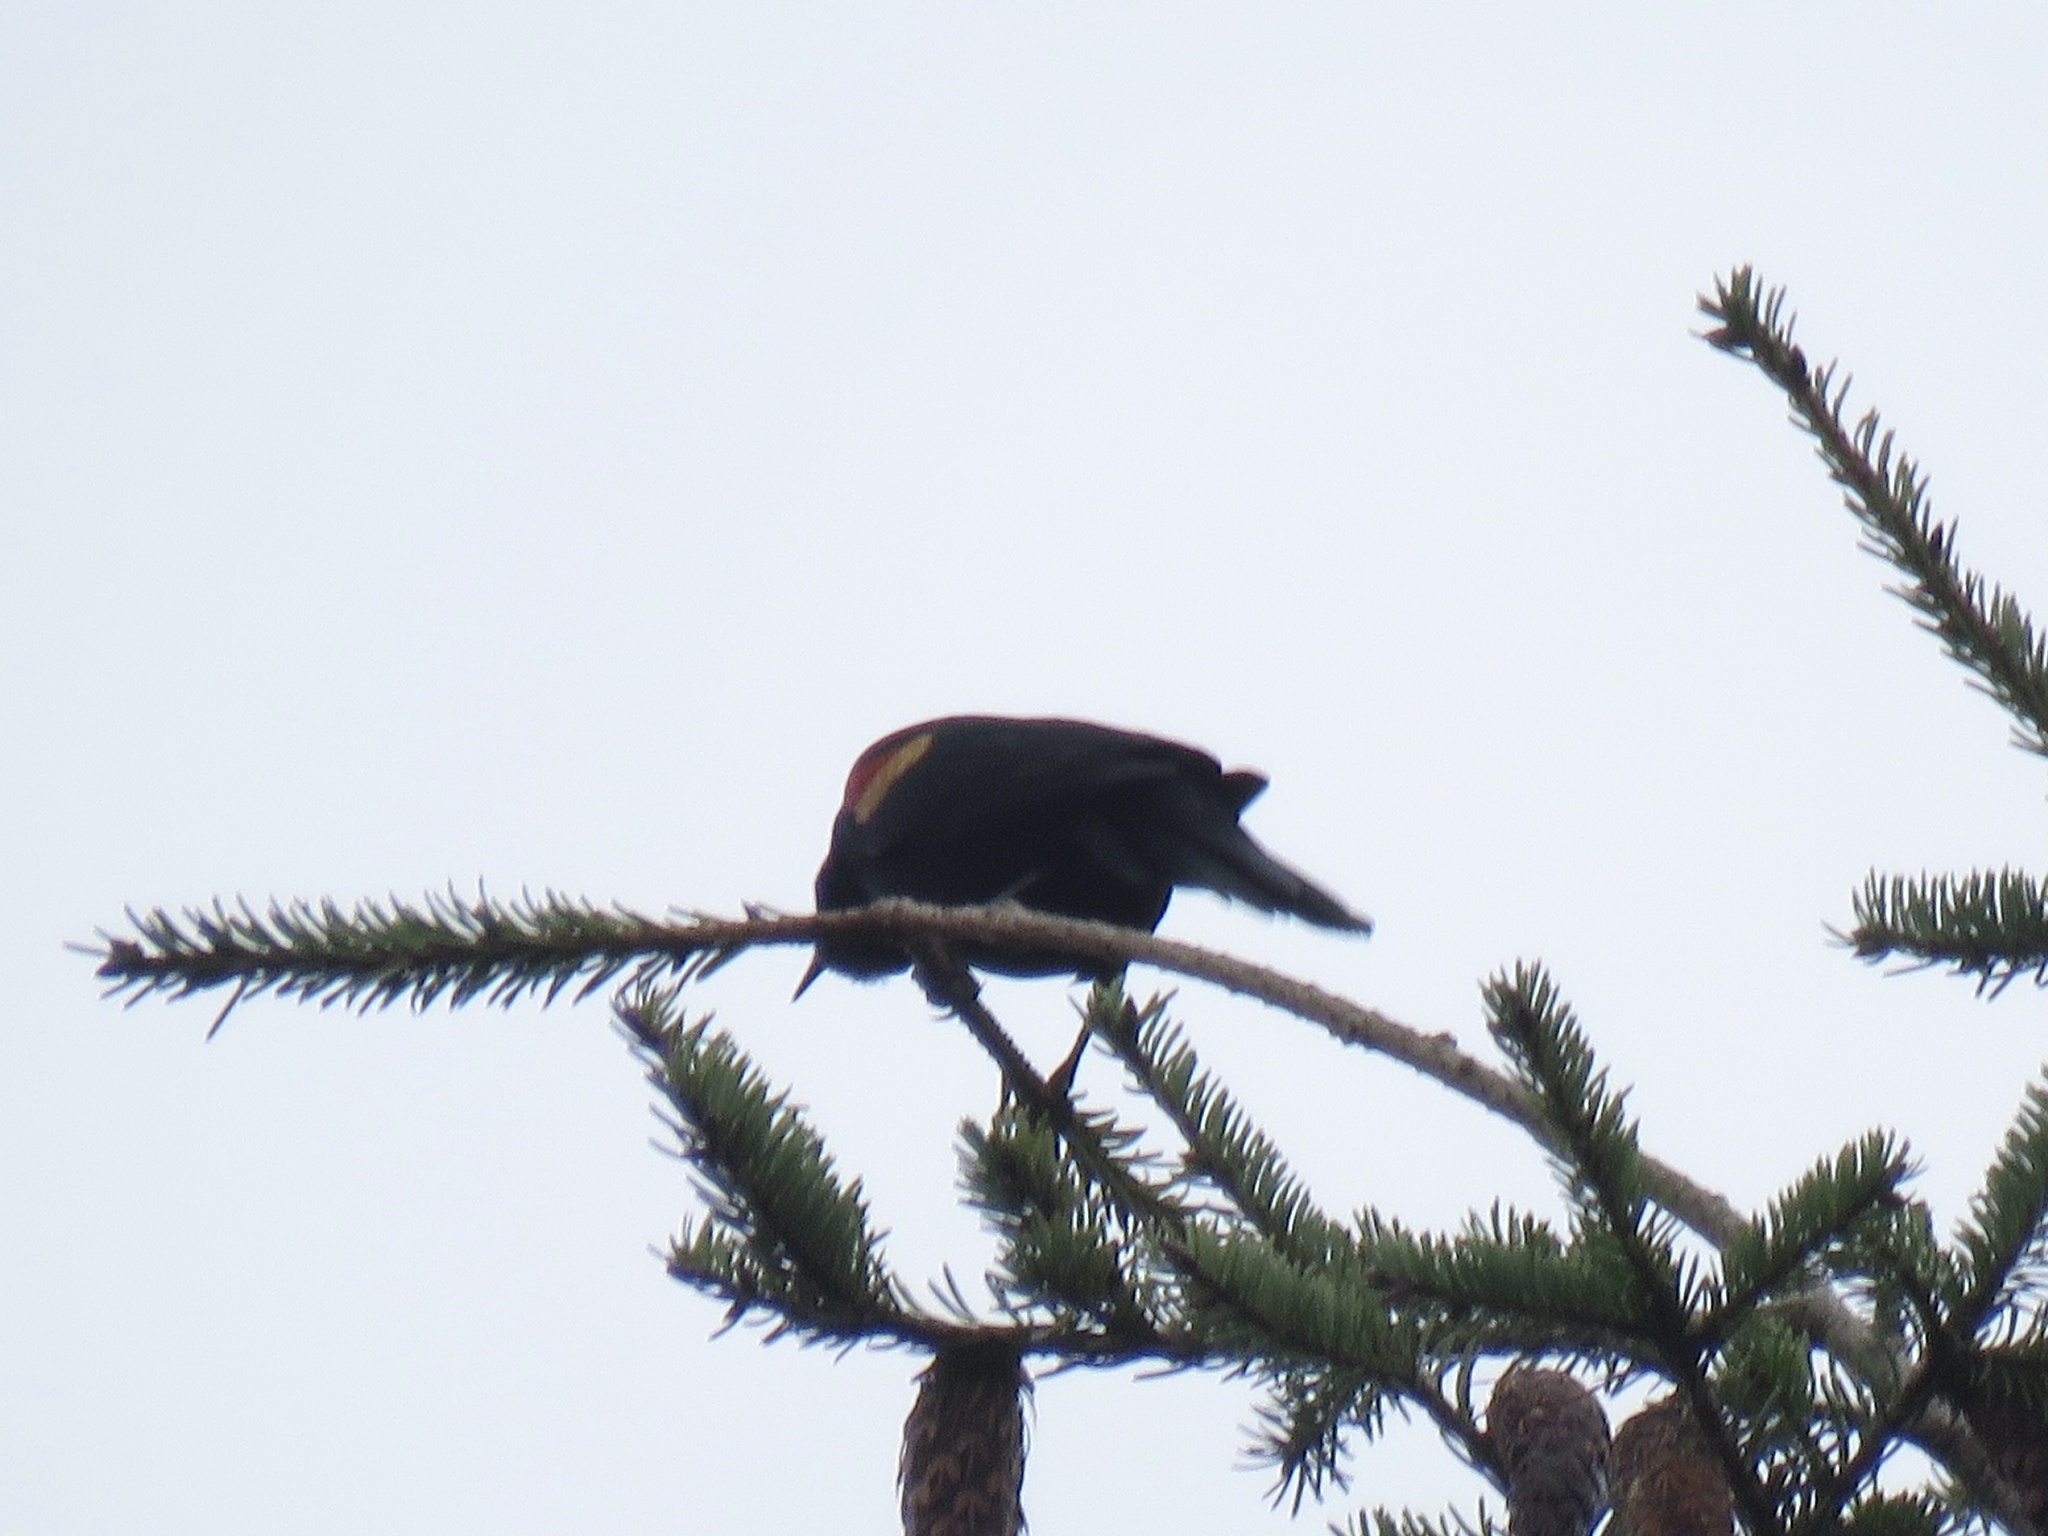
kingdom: Animalia
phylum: Chordata
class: Aves
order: Passeriformes
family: Icteridae
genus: Agelaius
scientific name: Agelaius phoeniceus
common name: Red-winged blackbird
